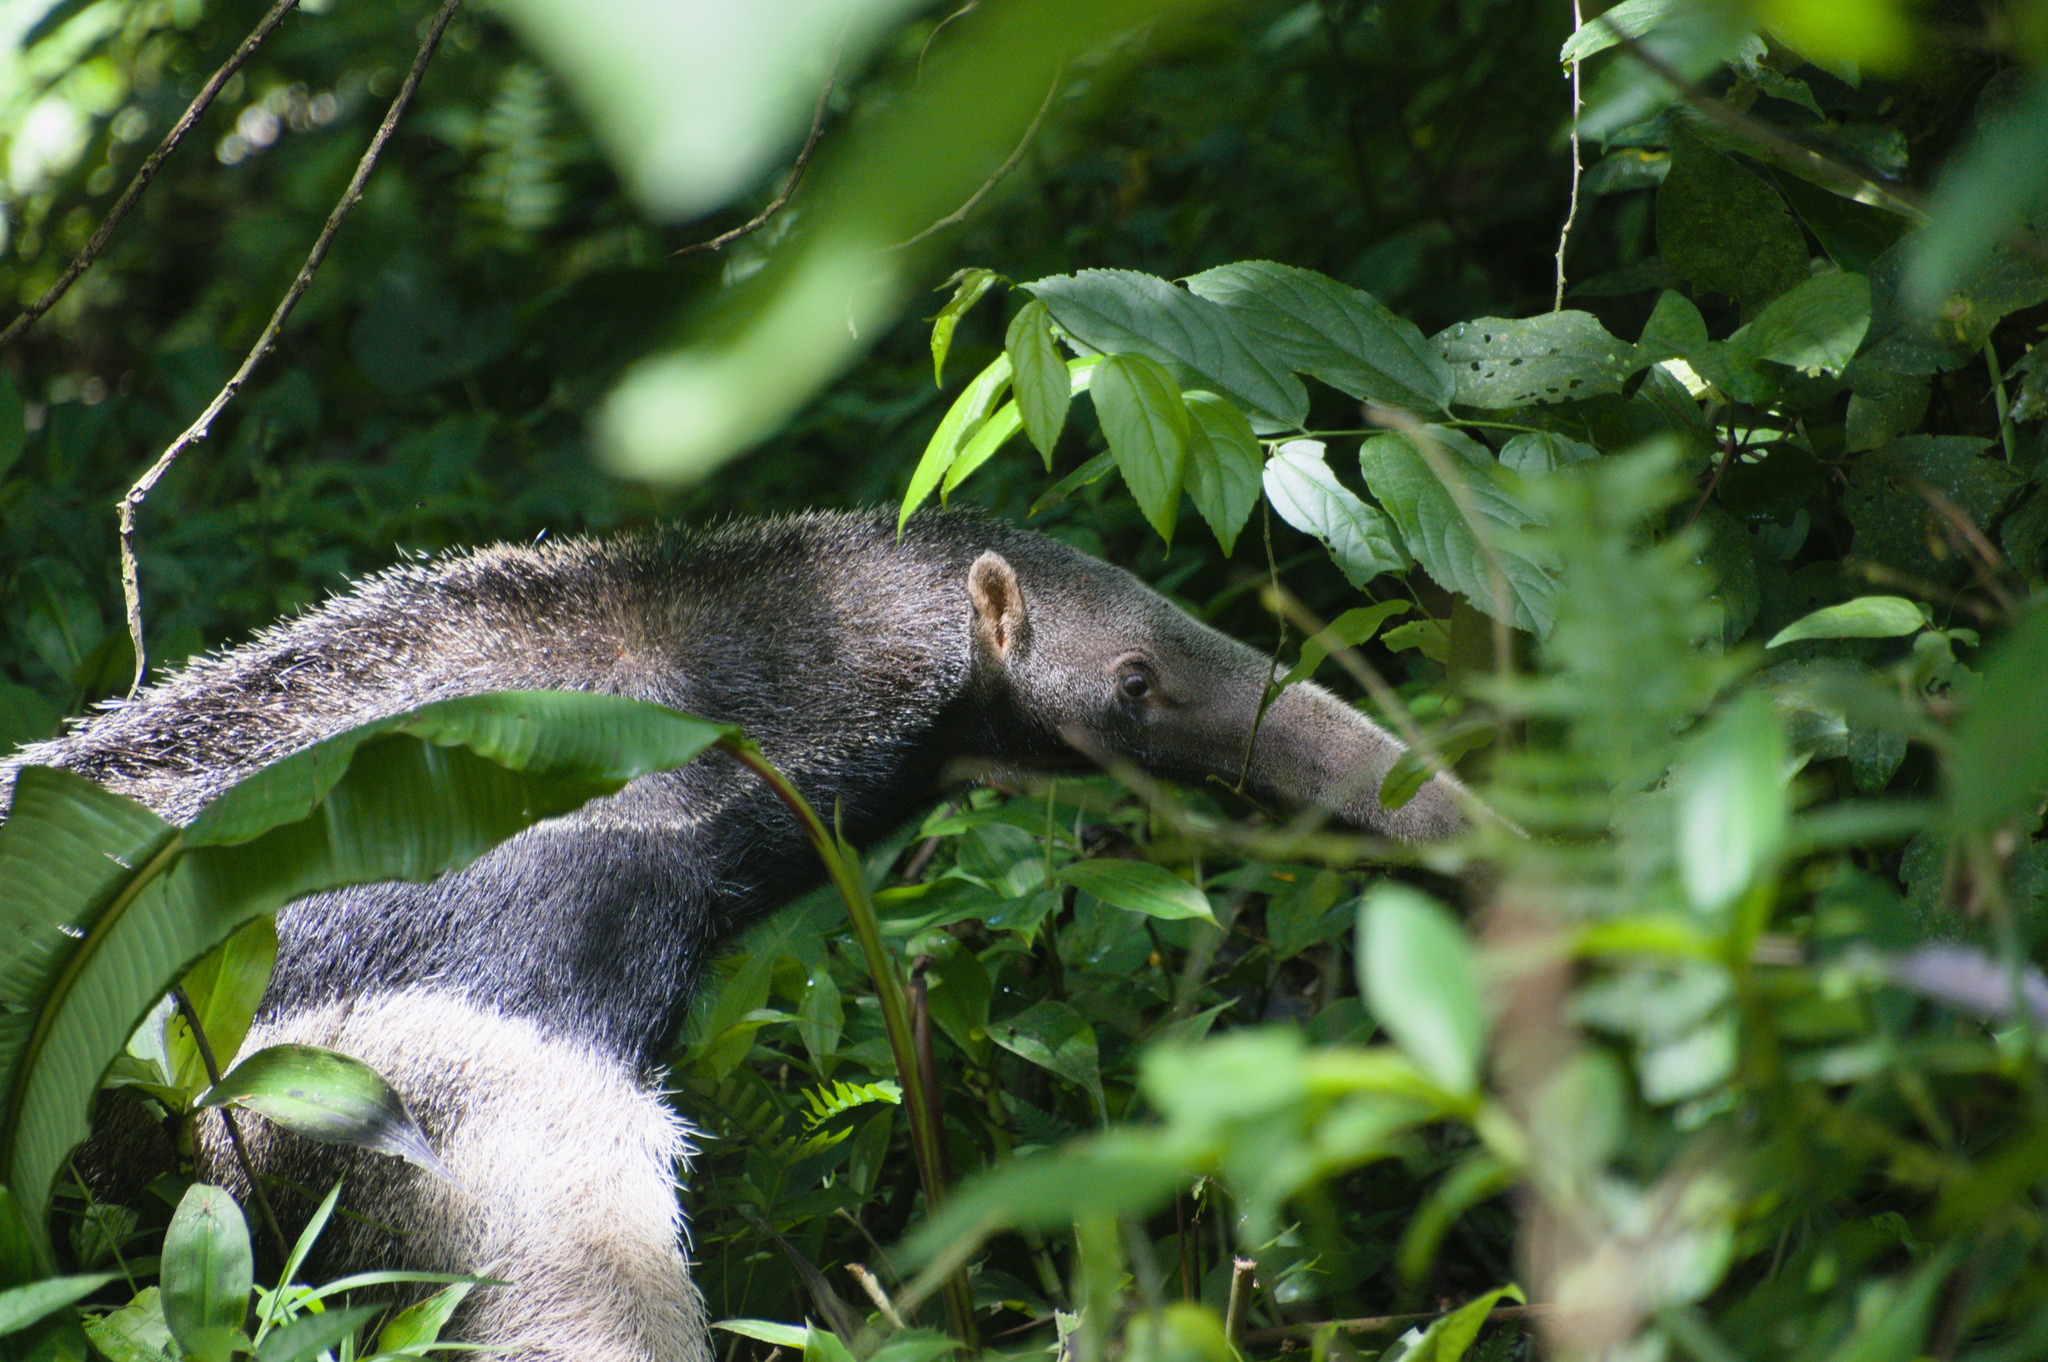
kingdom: Animalia
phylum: Chordata
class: Mammalia
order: Pilosa
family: Myrmecophagidae
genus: Myrmecophaga
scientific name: Myrmecophaga tridactyla
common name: Giant anteater
